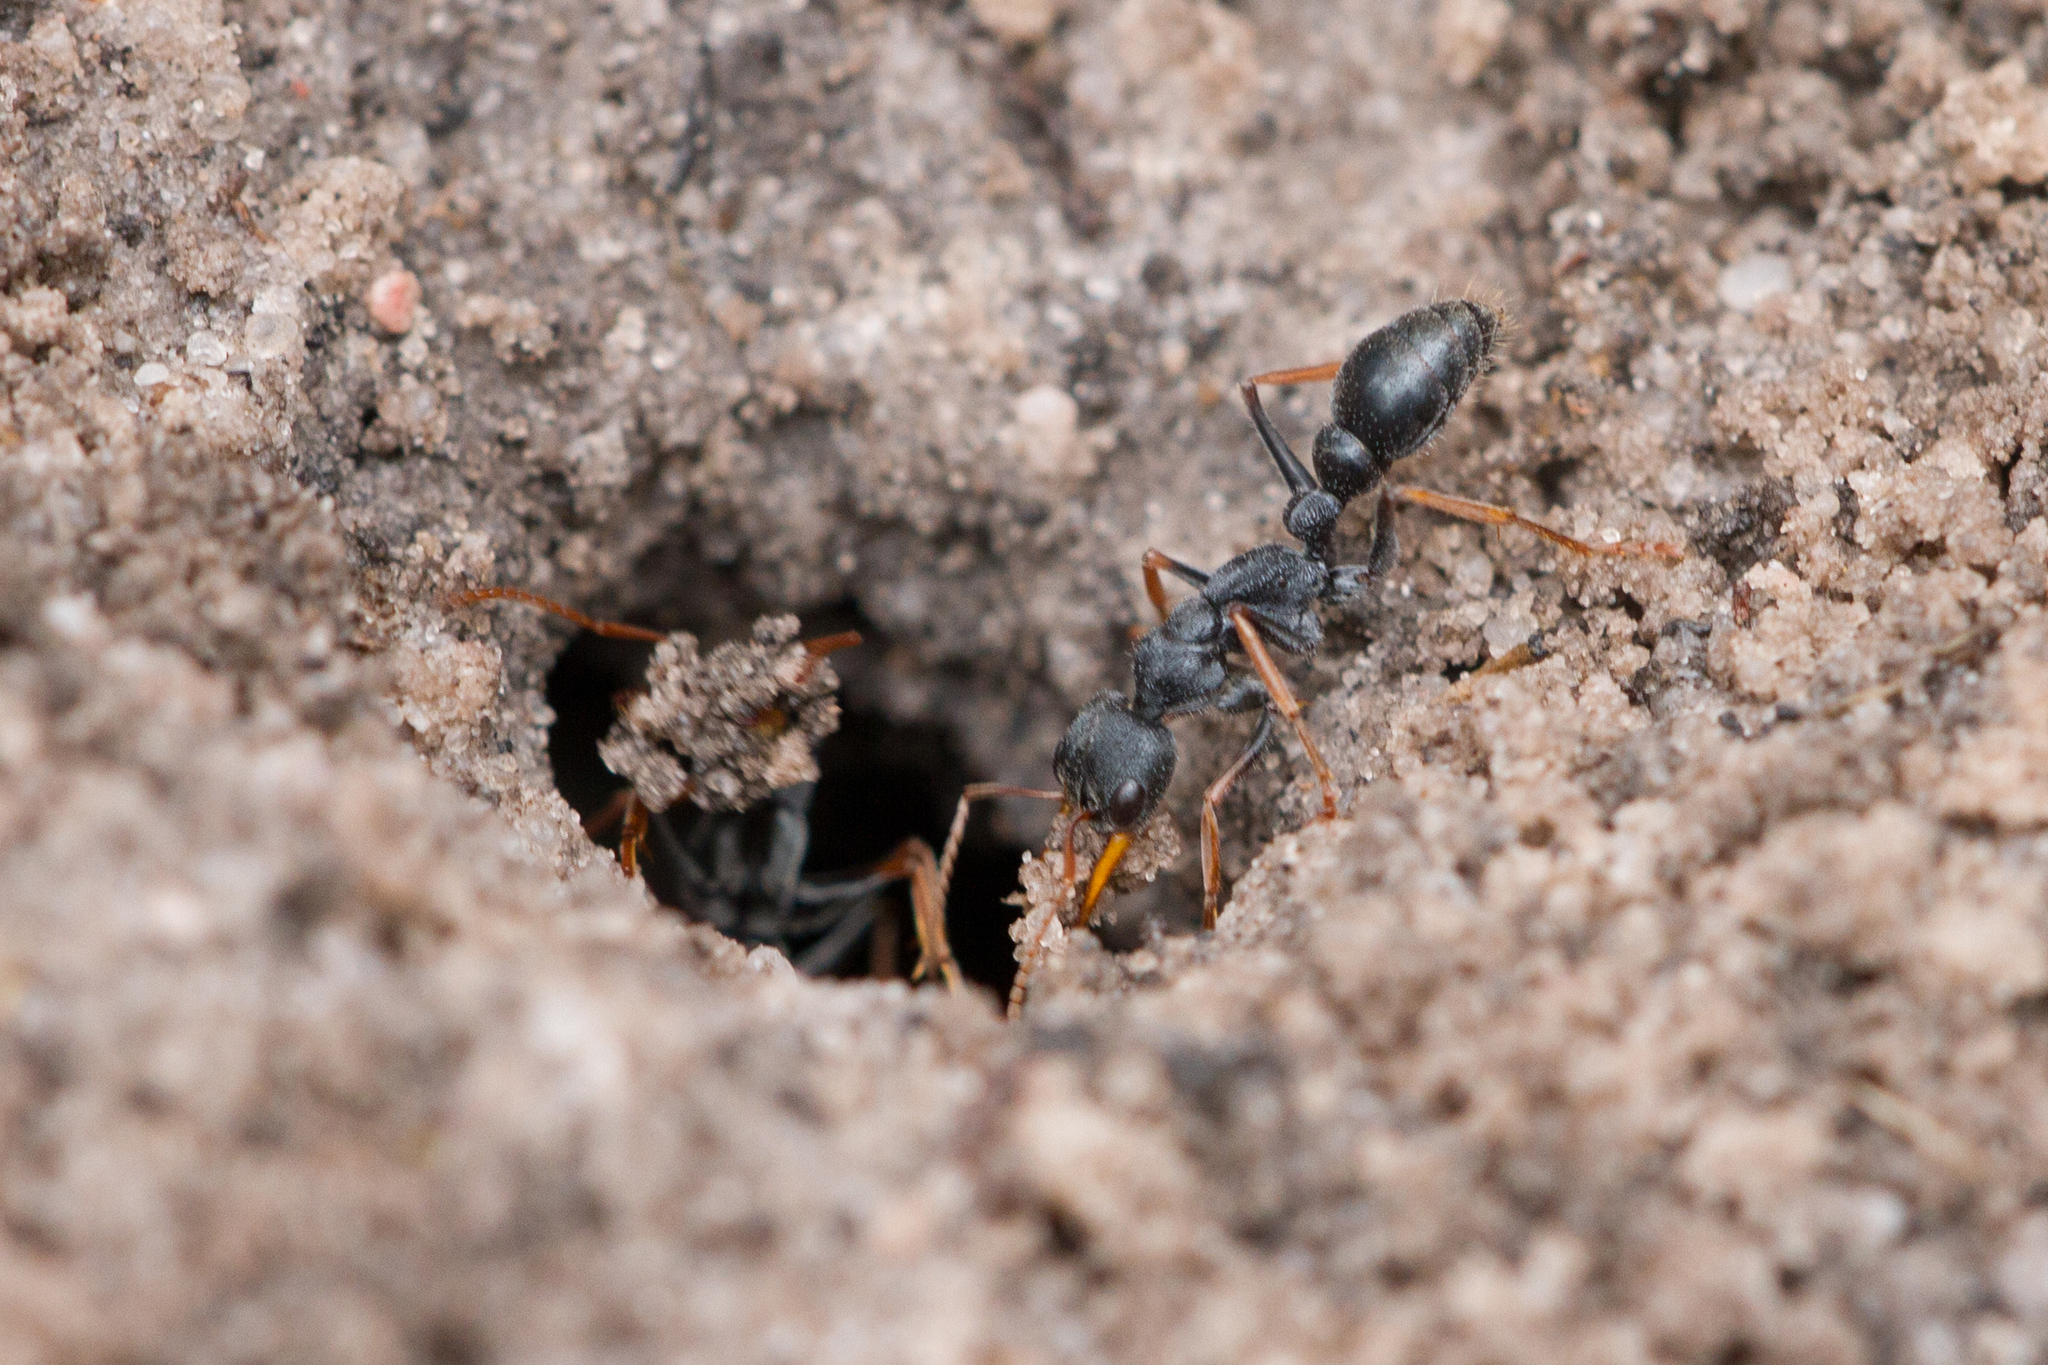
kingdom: Animalia
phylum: Arthropoda
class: Insecta
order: Hymenoptera
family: Formicidae
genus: Myrmecia
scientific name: Myrmecia pilosula
